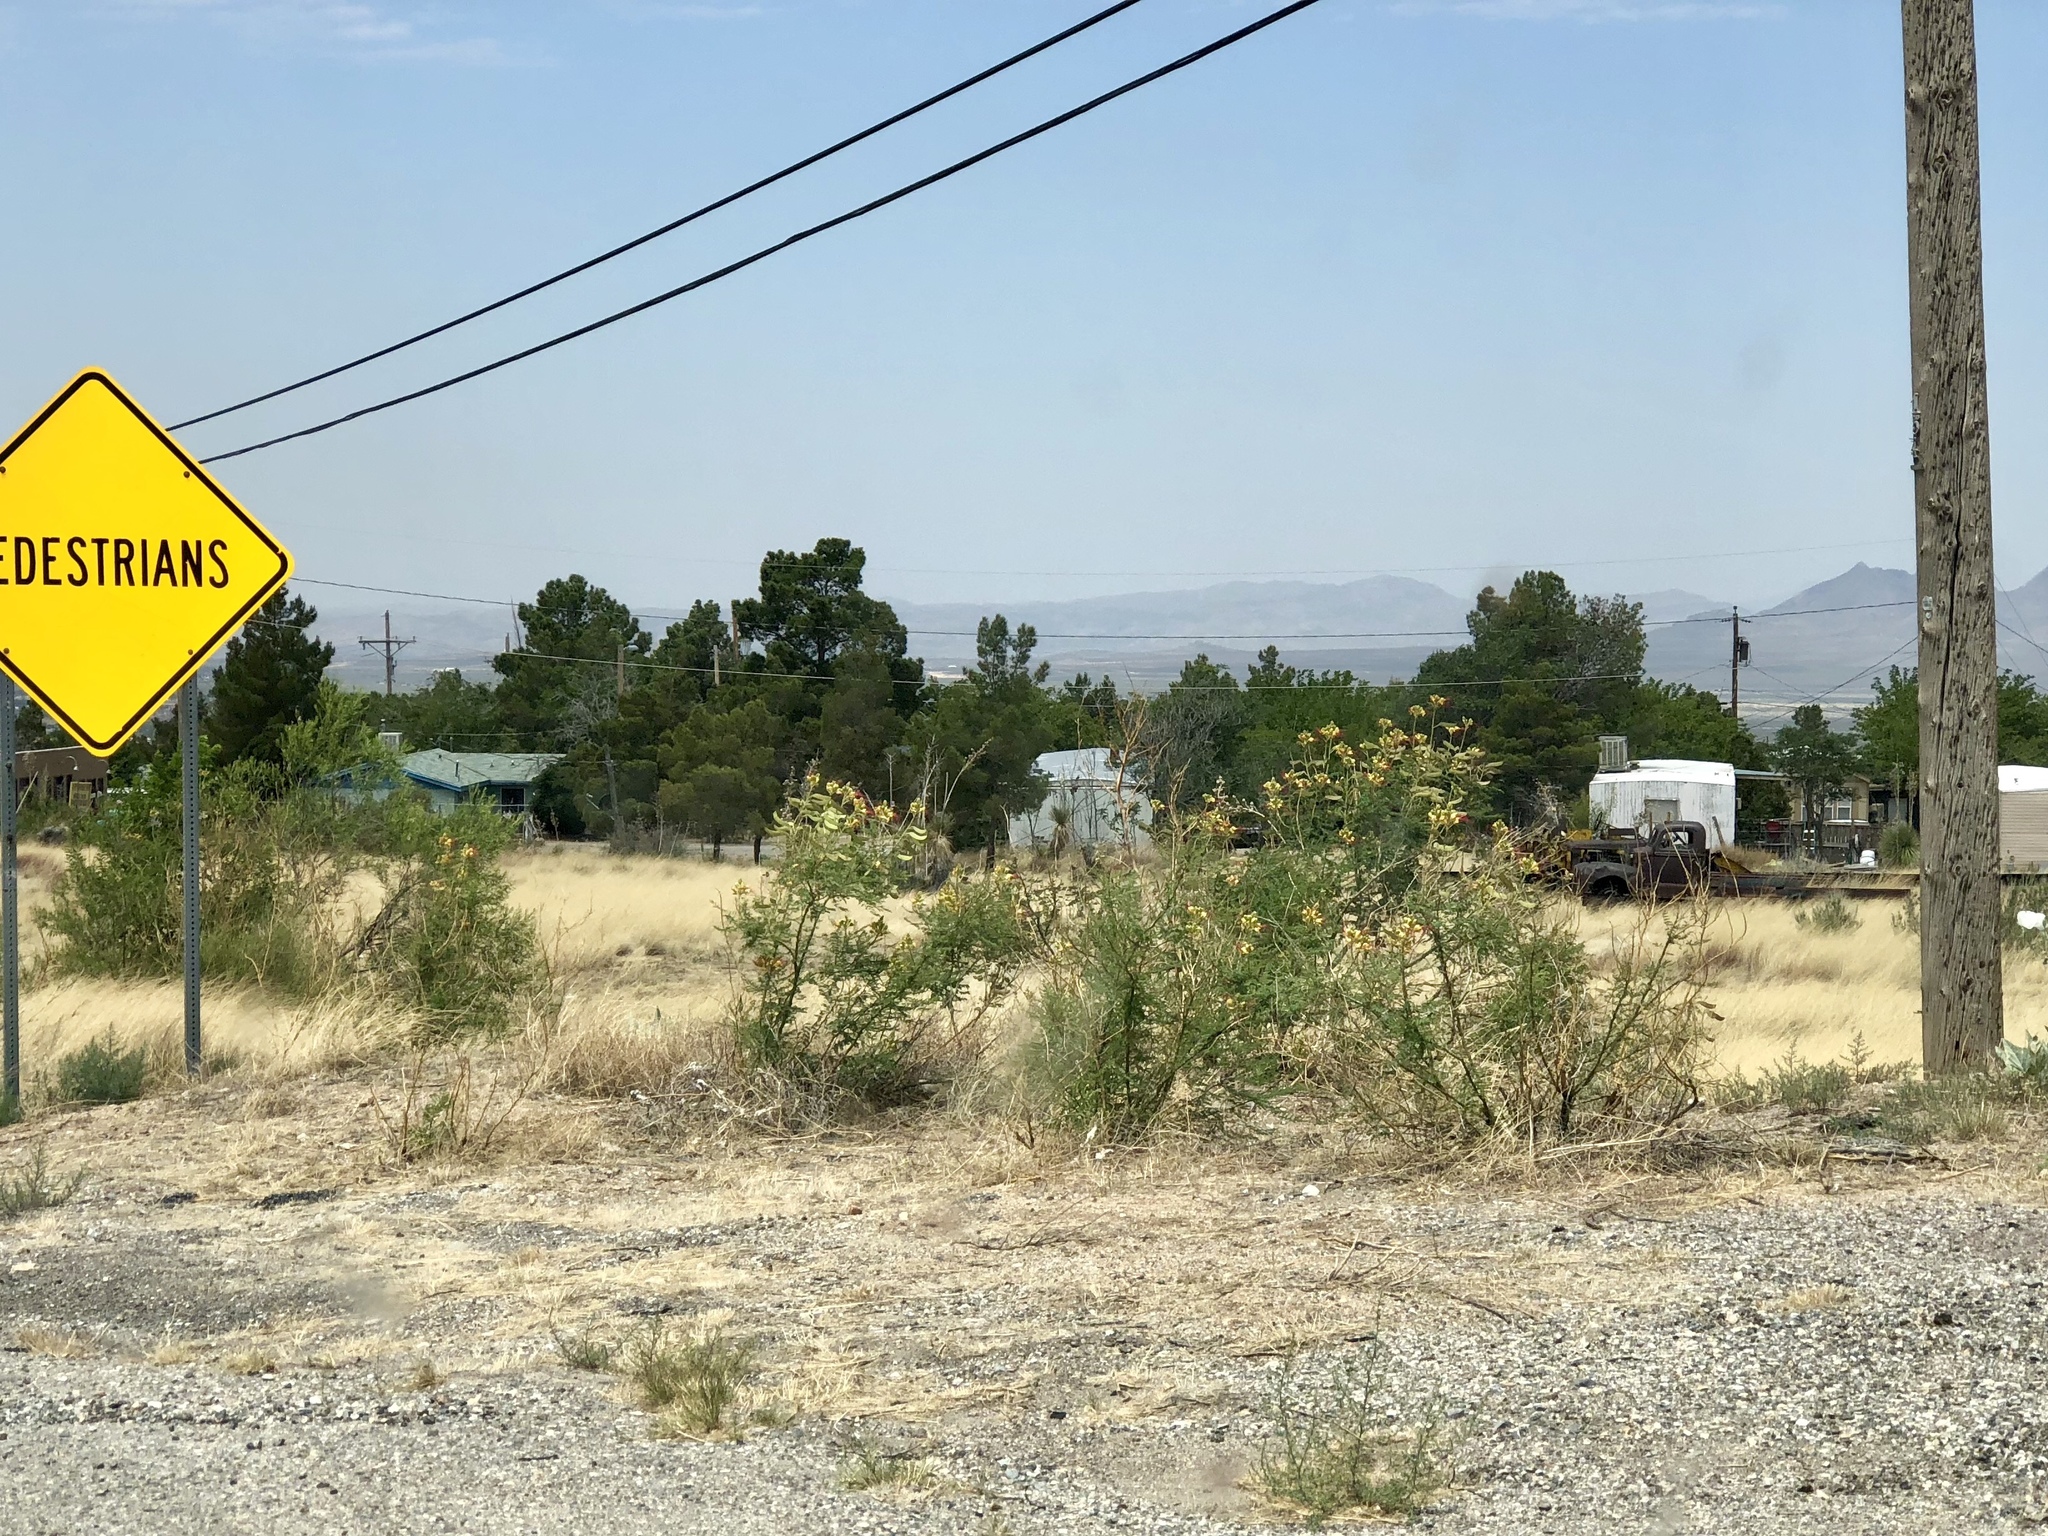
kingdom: Plantae
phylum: Tracheophyta
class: Magnoliopsida
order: Fabales
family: Fabaceae
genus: Erythrostemon
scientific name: Erythrostemon gilliesii
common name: Bird-of-paradise shrub
